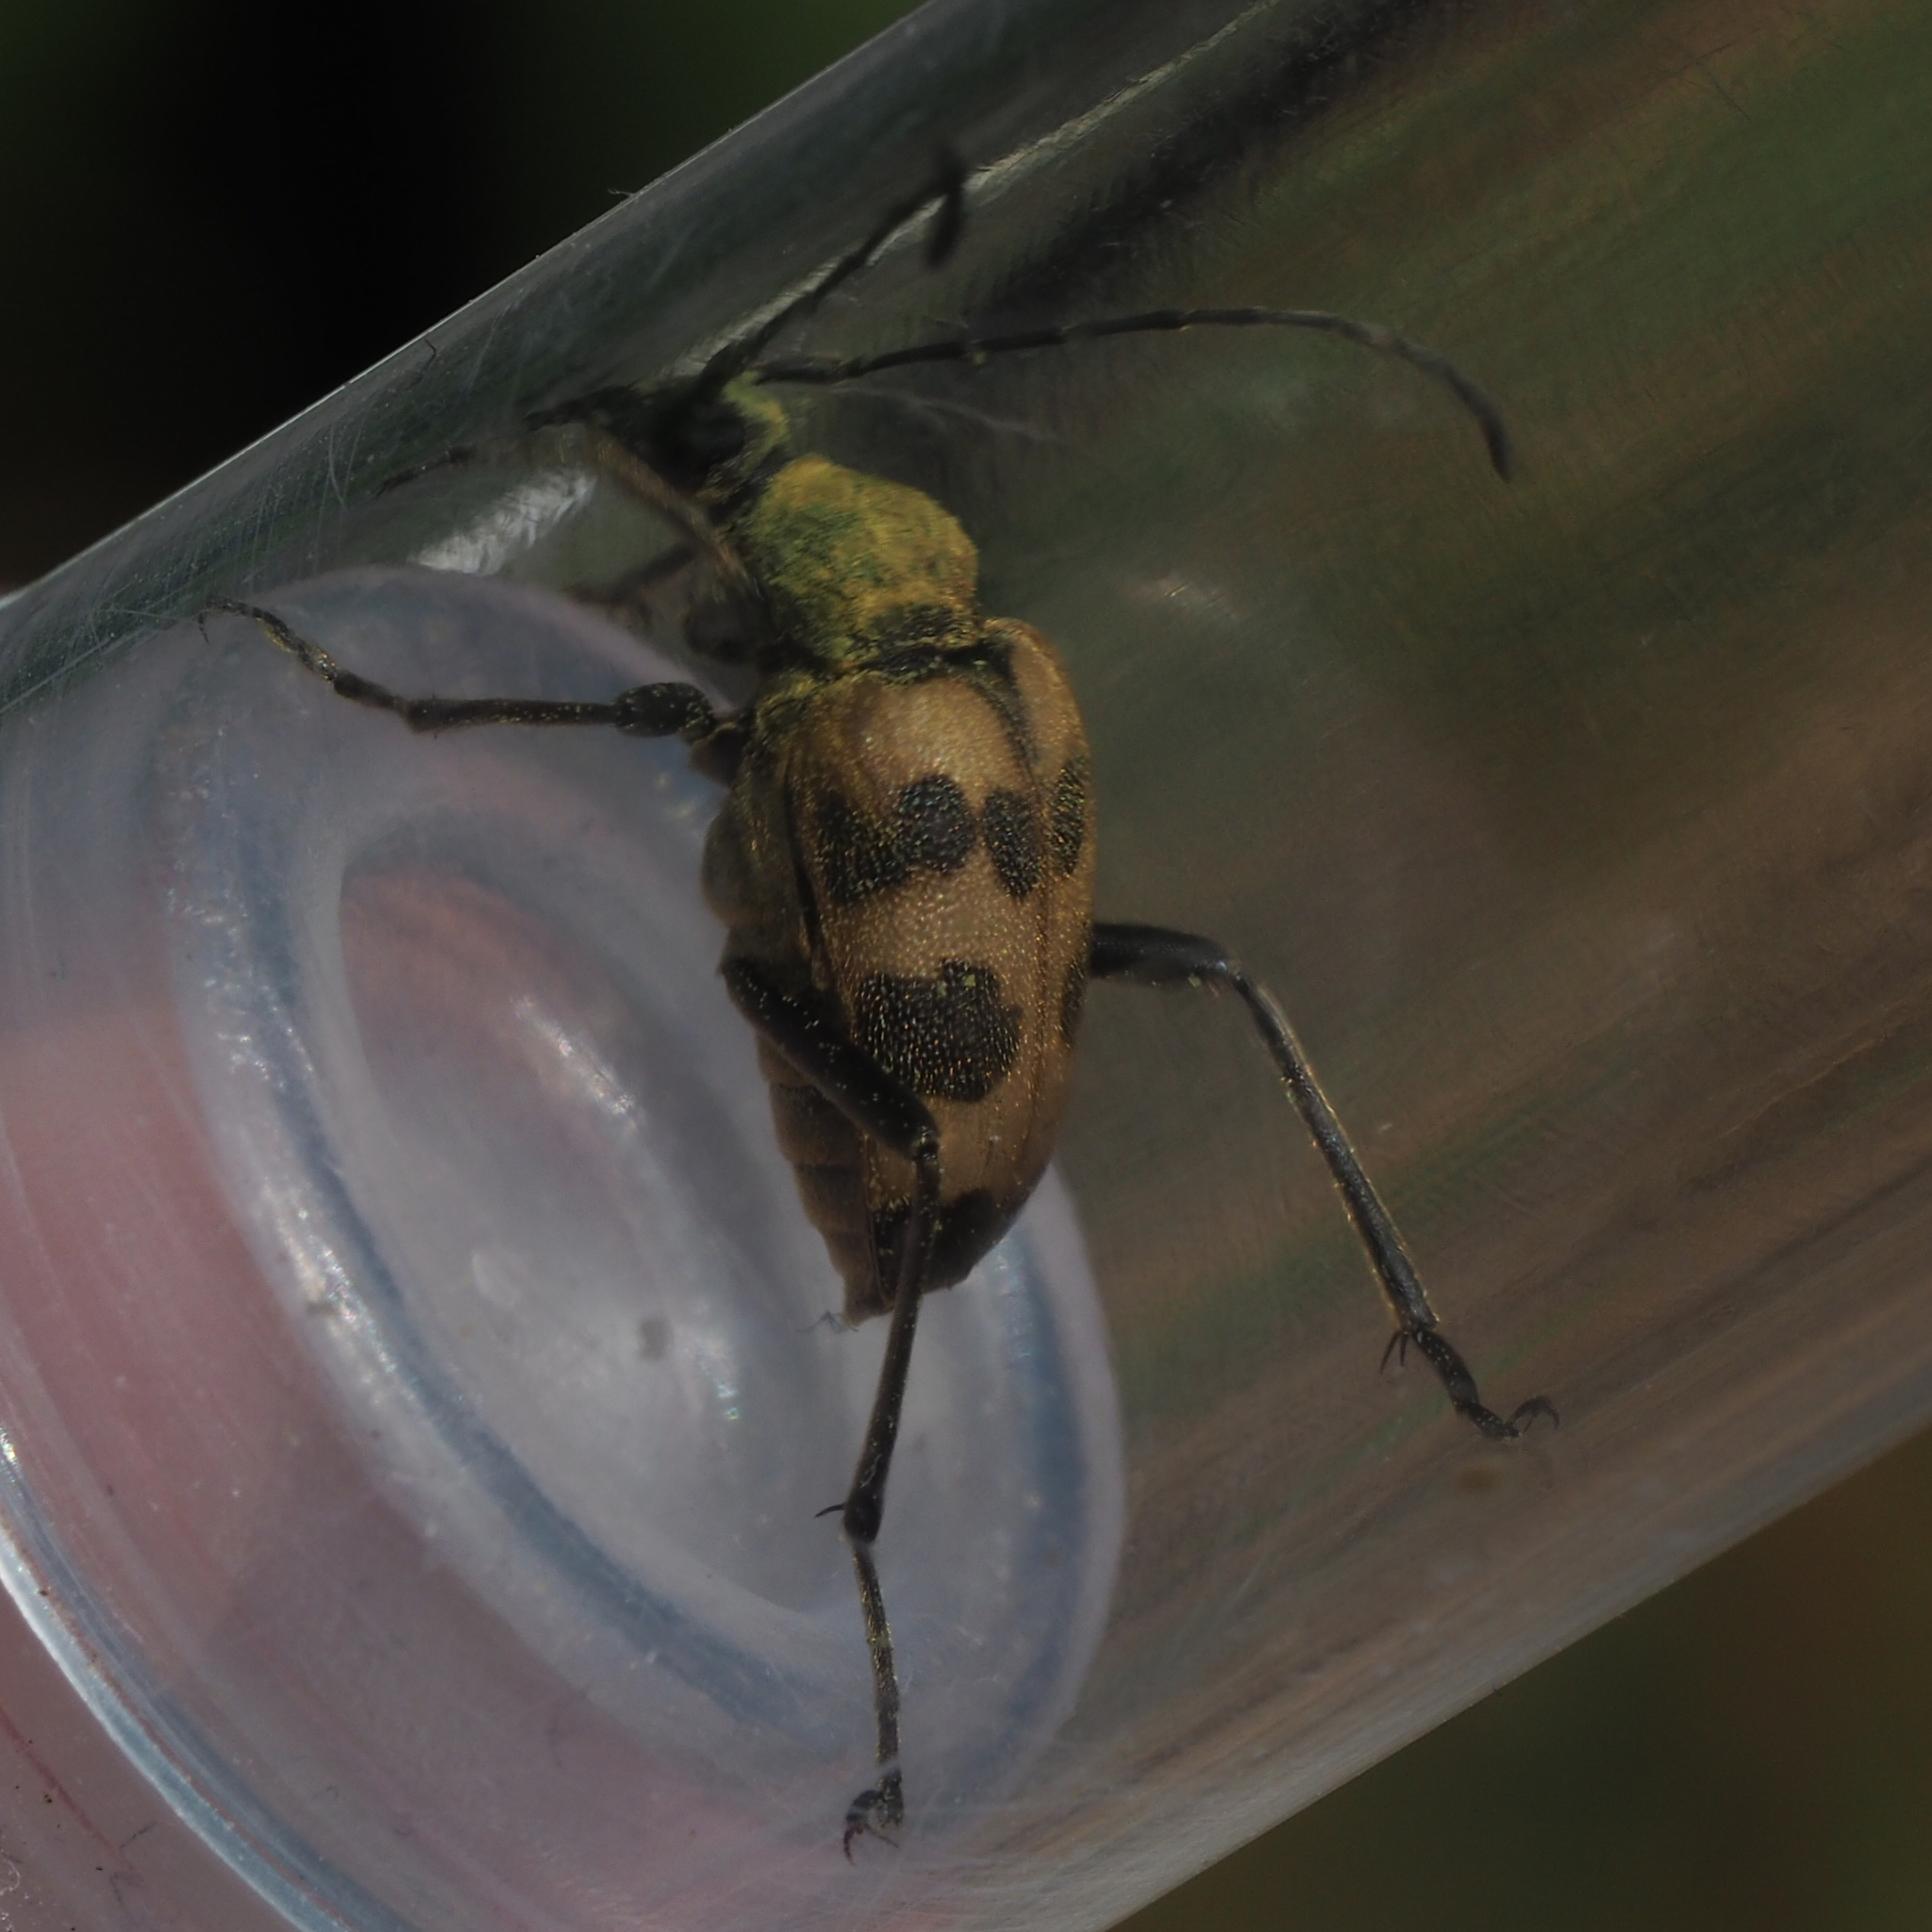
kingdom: Animalia
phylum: Arthropoda
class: Insecta
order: Coleoptera
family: Cerambycidae
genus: Pachytodes
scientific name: Pachytodes cerambyciformis
